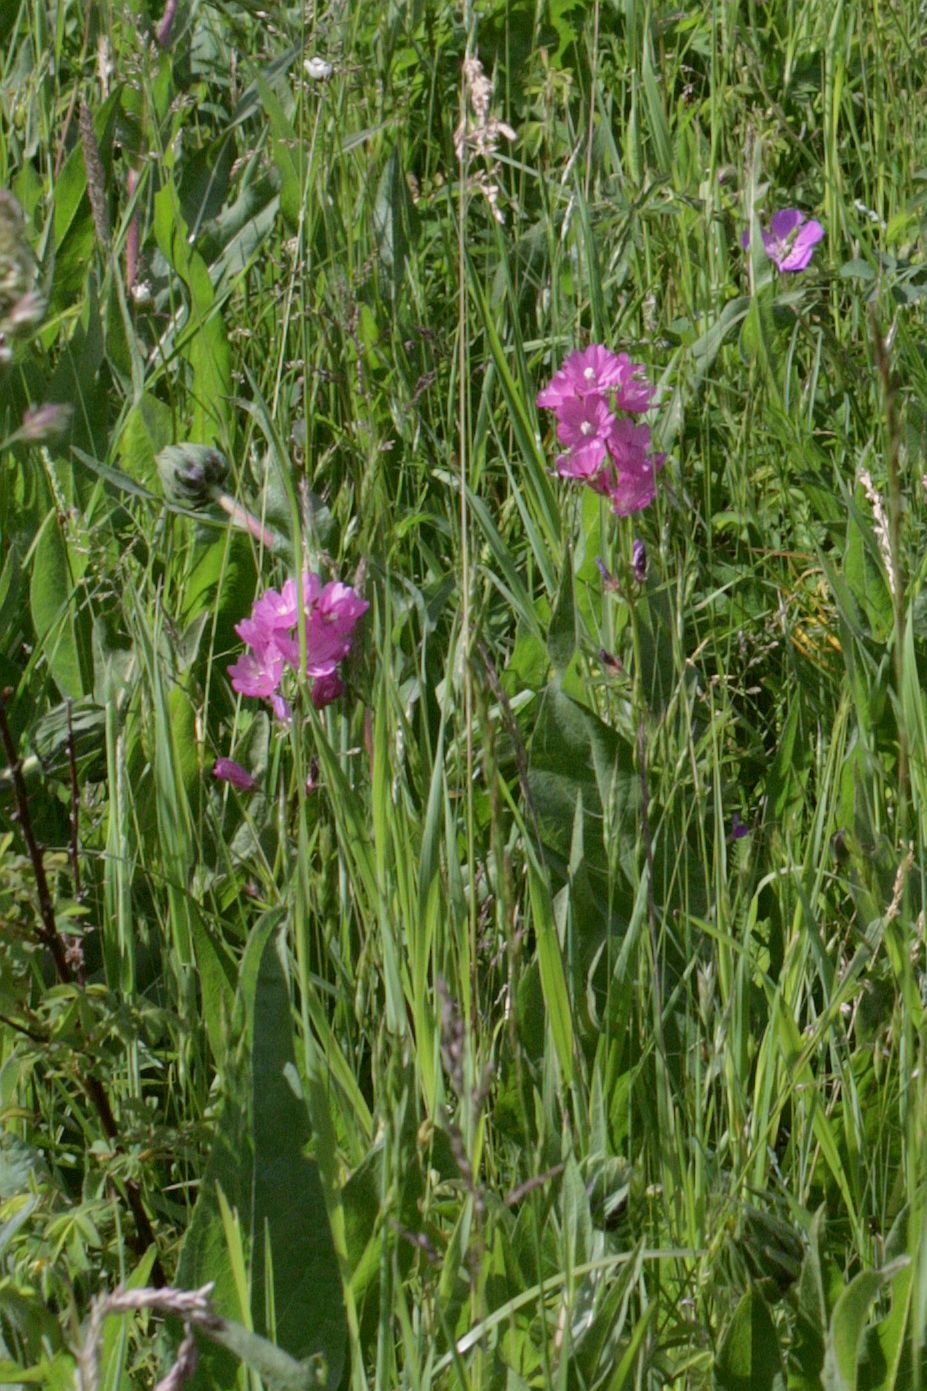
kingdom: Plantae
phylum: Tracheophyta
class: Magnoliopsida
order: Malvales
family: Malvaceae
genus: Sidalcea
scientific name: Sidalcea asprella
